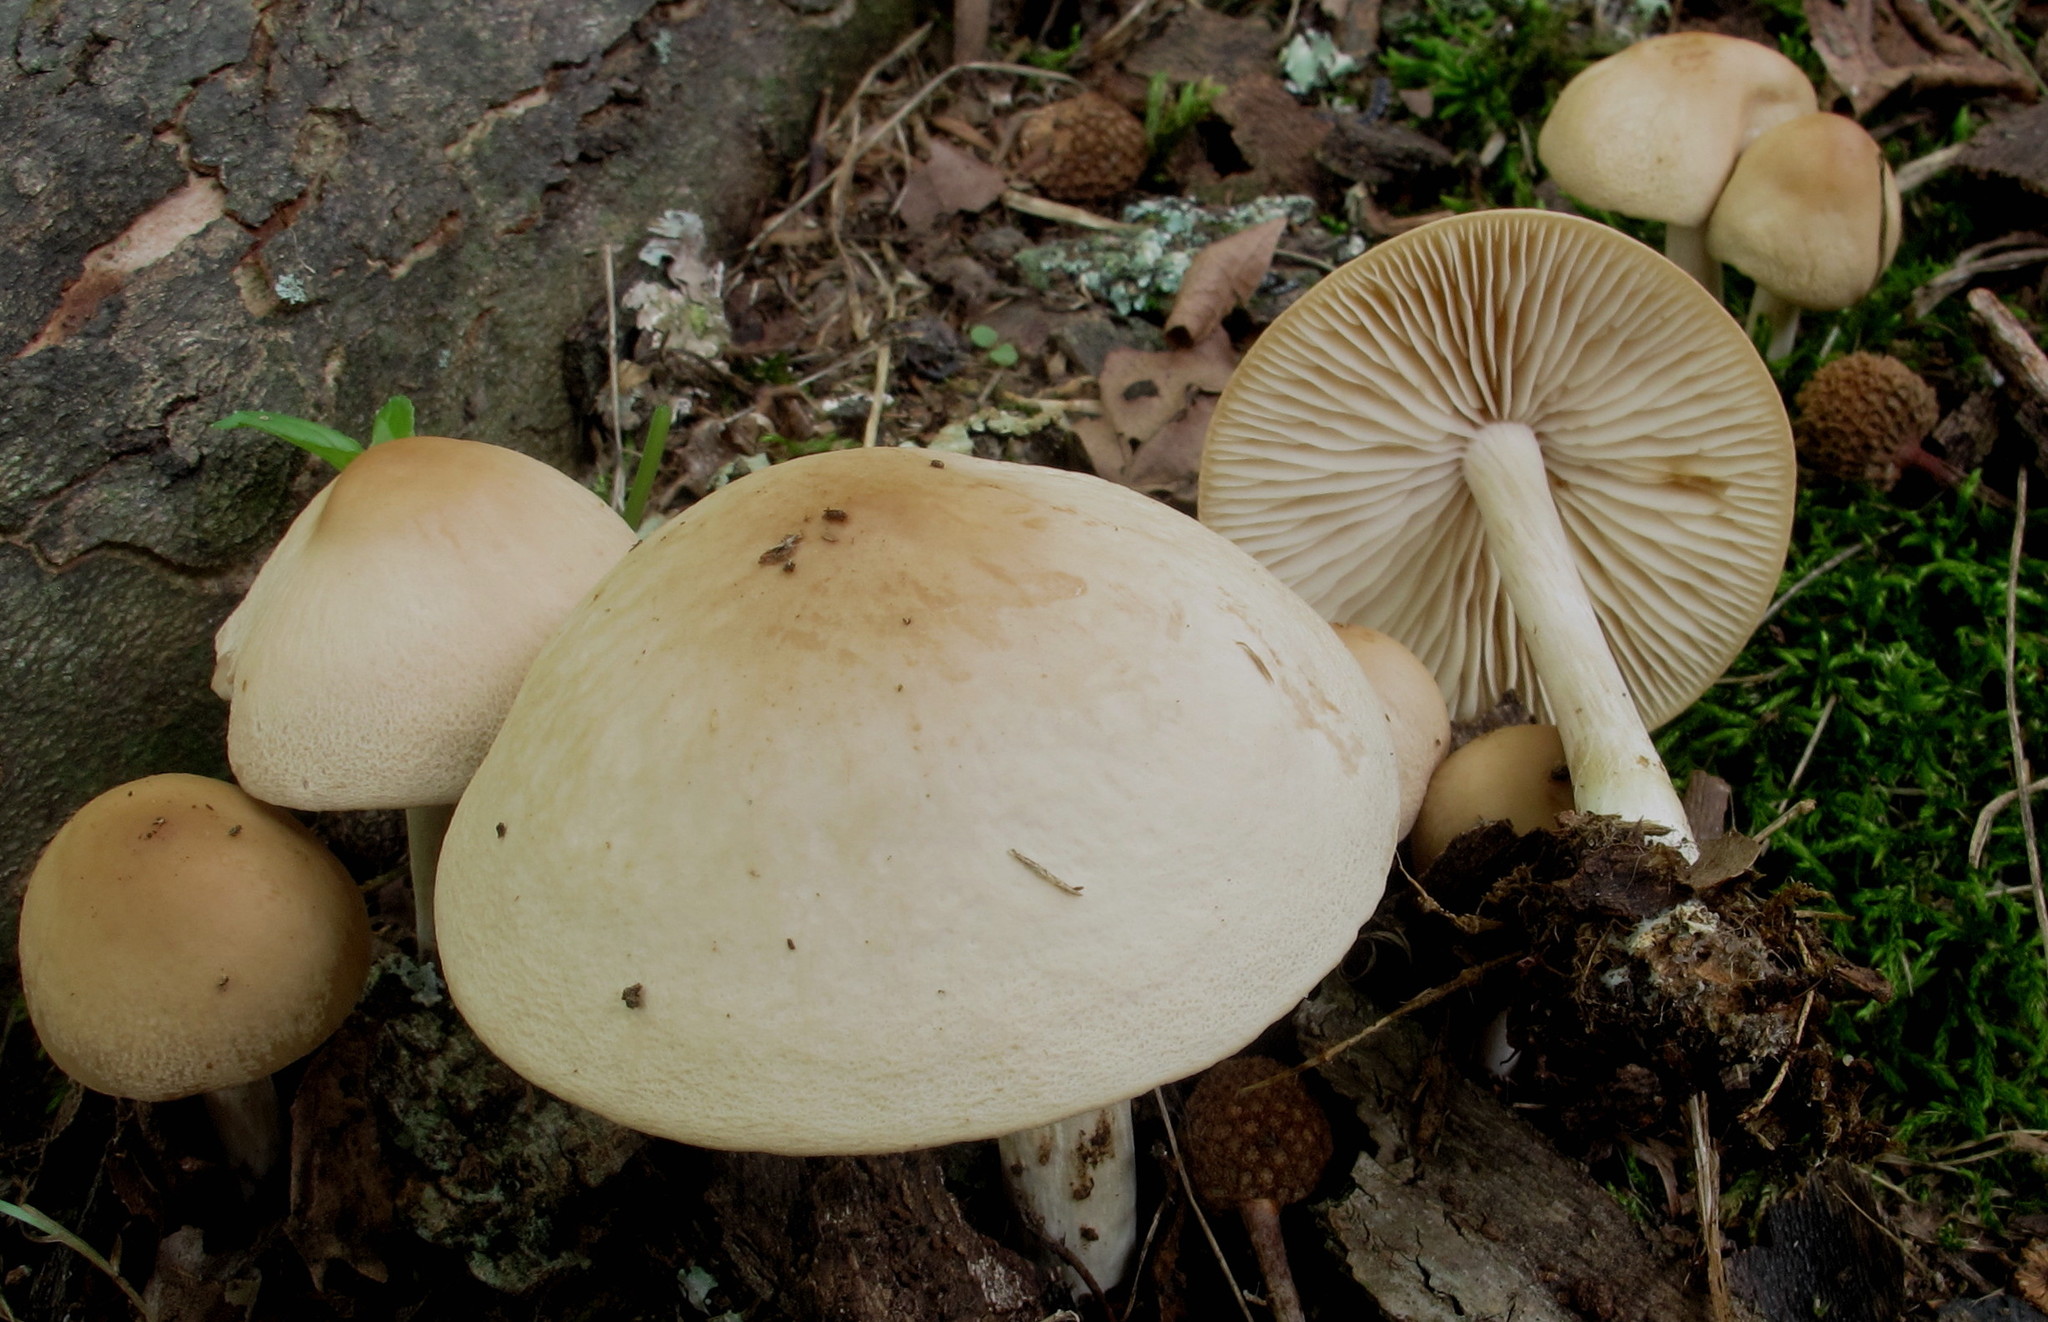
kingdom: Fungi
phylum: Basidiomycota
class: Agaricomycetes
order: Agaricales
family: Marasmiaceae
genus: Marasmius
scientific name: Marasmius nigrodiscus
